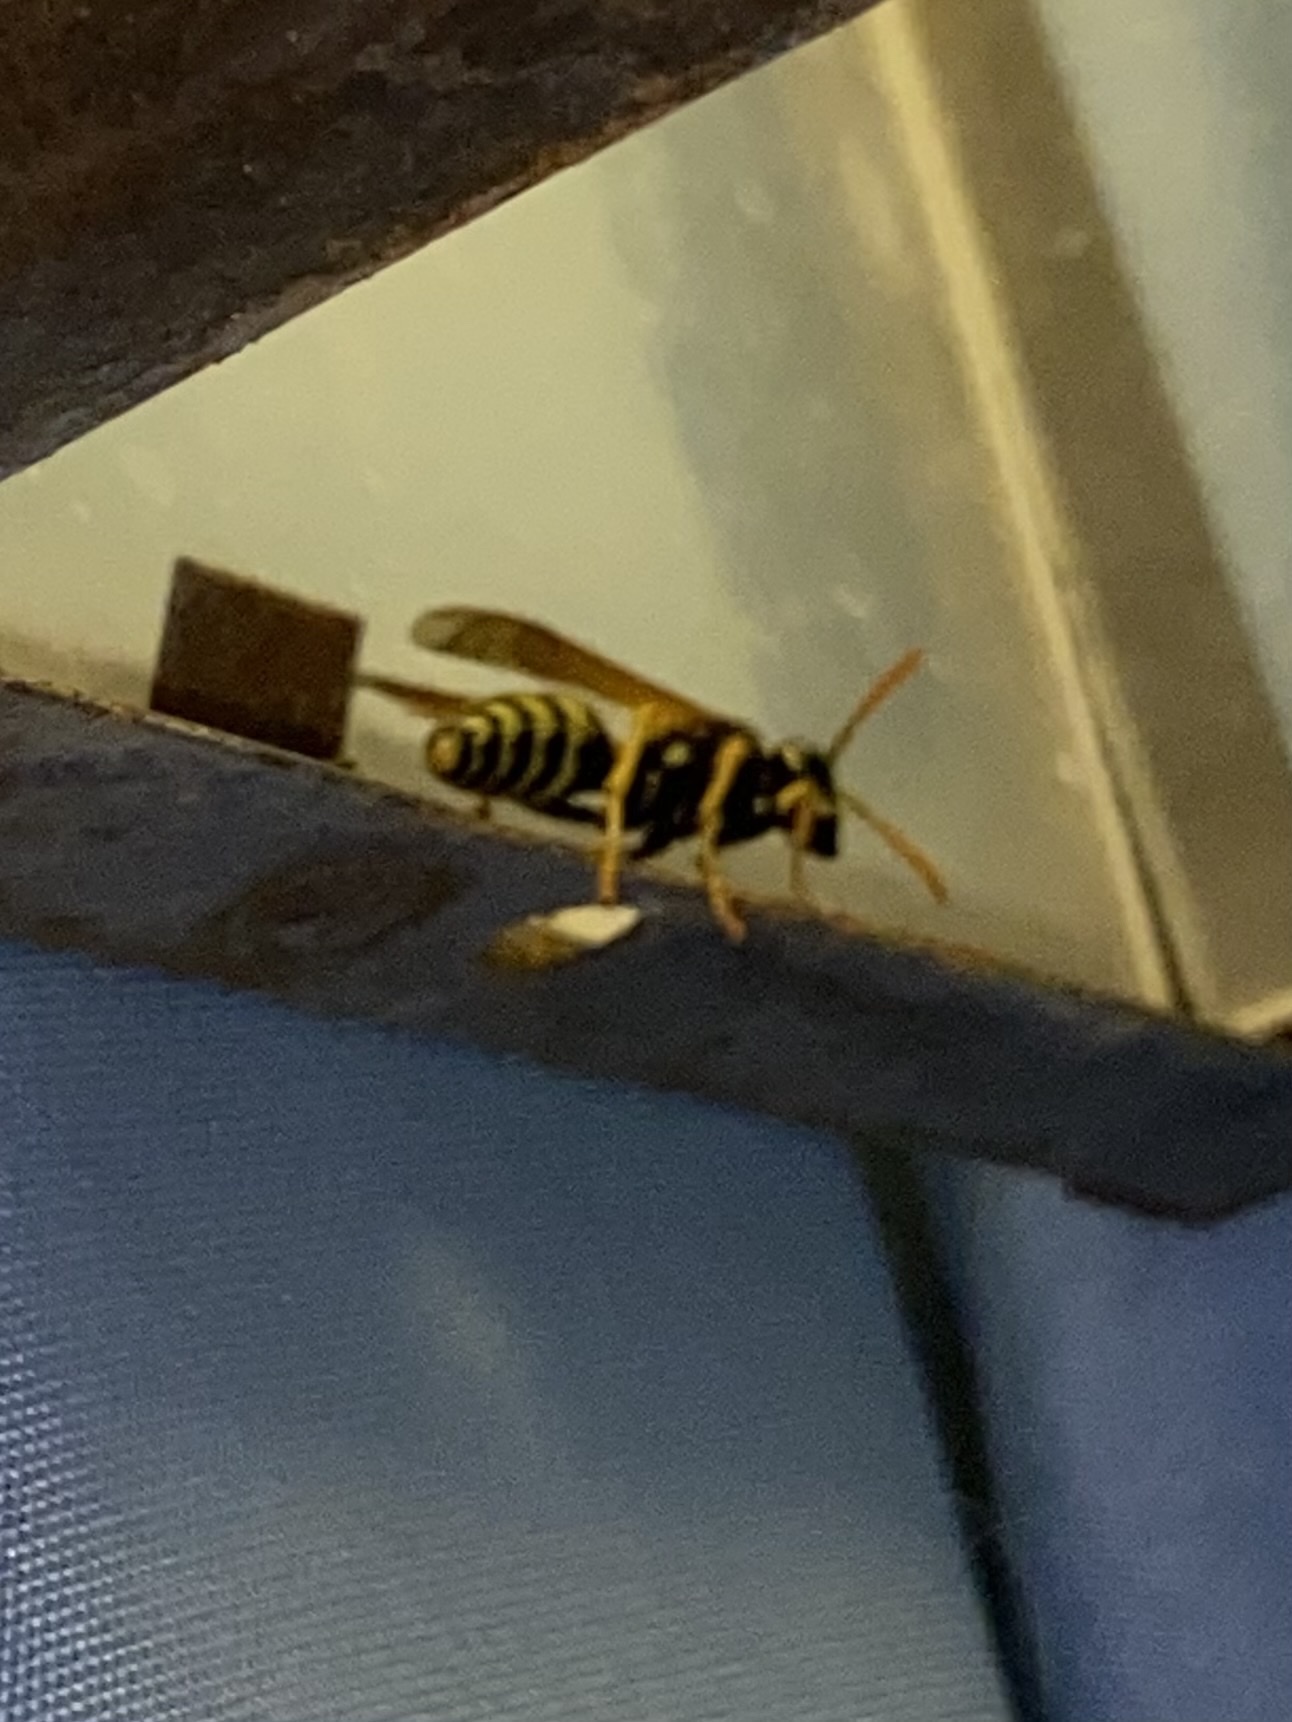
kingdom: Animalia
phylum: Arthropoda
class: Insecta
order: Hymenoptera
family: Eumenidae
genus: Polistes
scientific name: Polistes dominula
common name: Paper wasp
